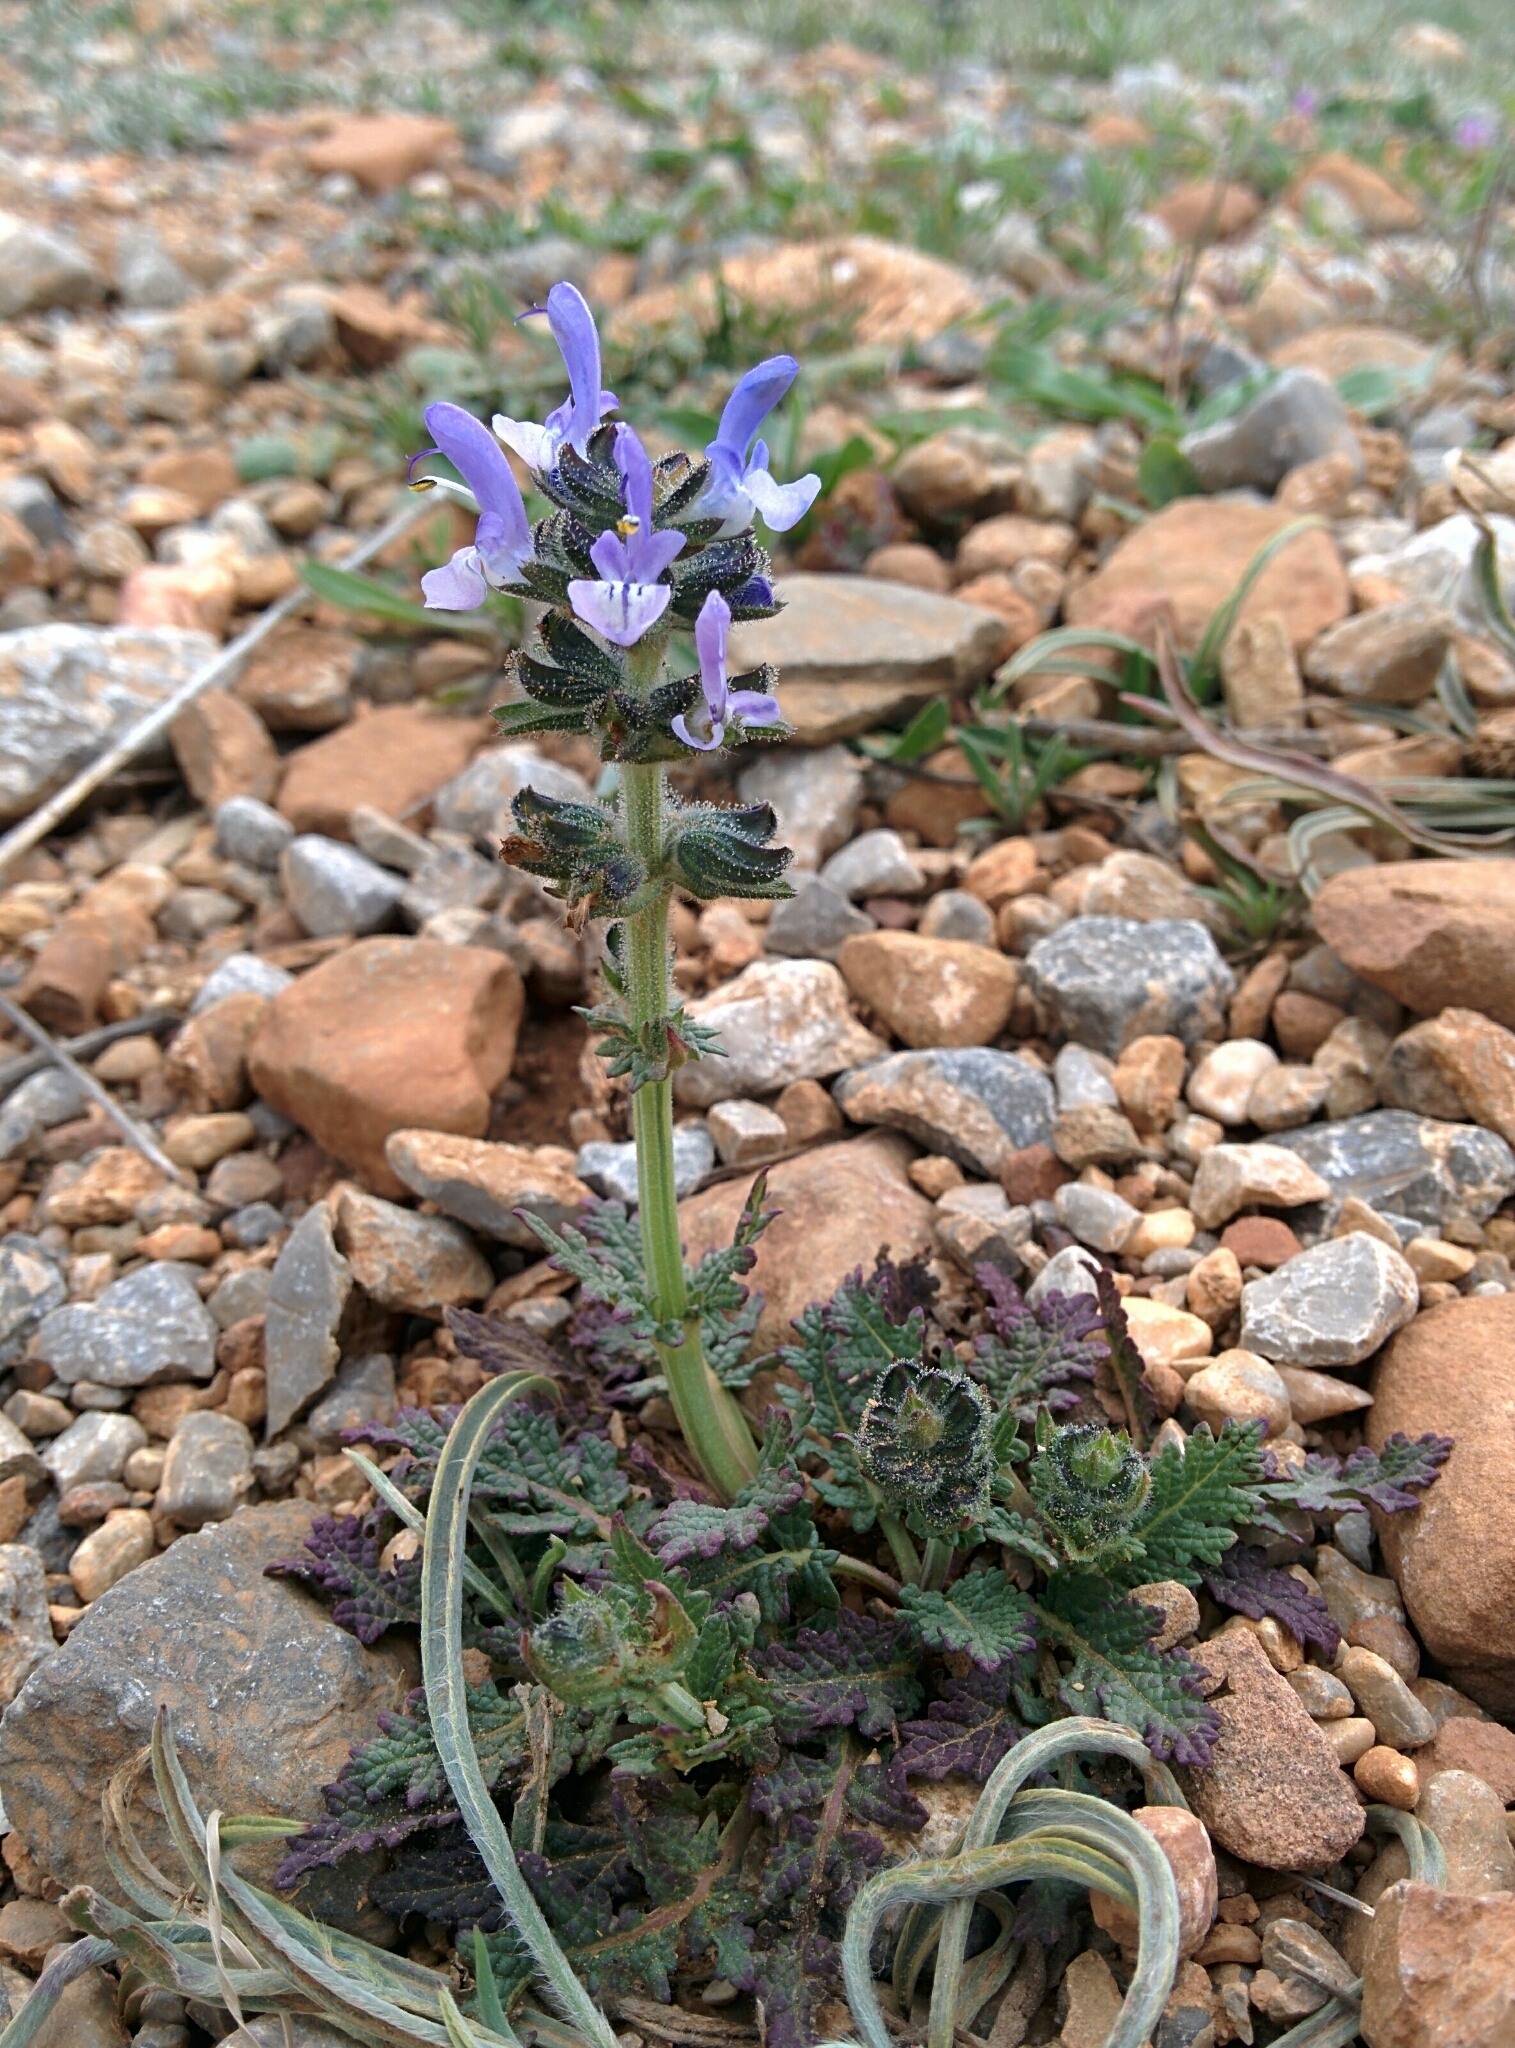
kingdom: Plantae
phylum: Tracheophyta
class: Magnoliopsida
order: Lamiales
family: Lamiaceae
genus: Salvia
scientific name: Salvia verbenaca
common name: Wild clary
